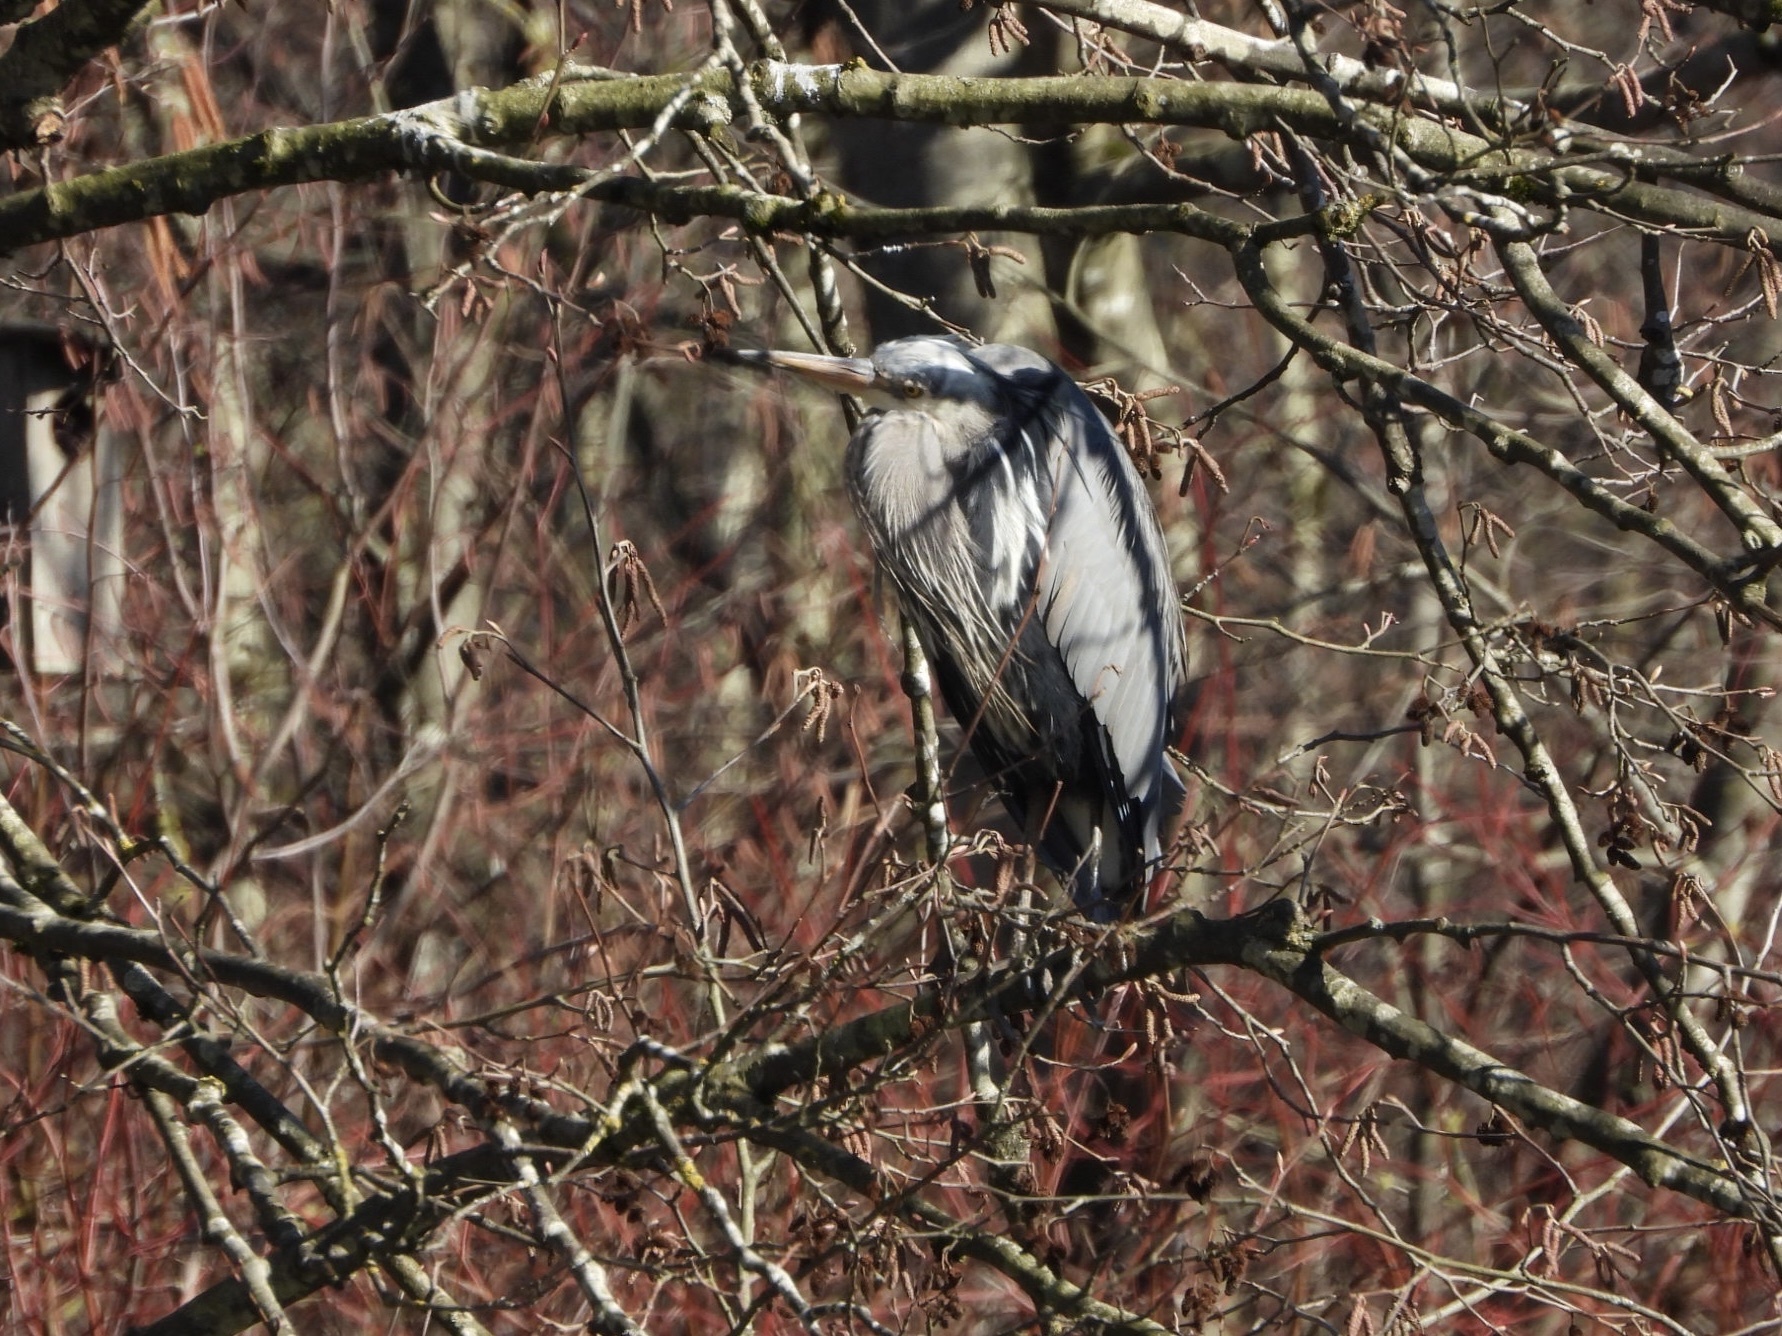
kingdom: Animalia
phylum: Chordata
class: Aves
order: Pelecaniformes
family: Ardeidae
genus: Ardea
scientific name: Ardea herodias
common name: Great blue heron
